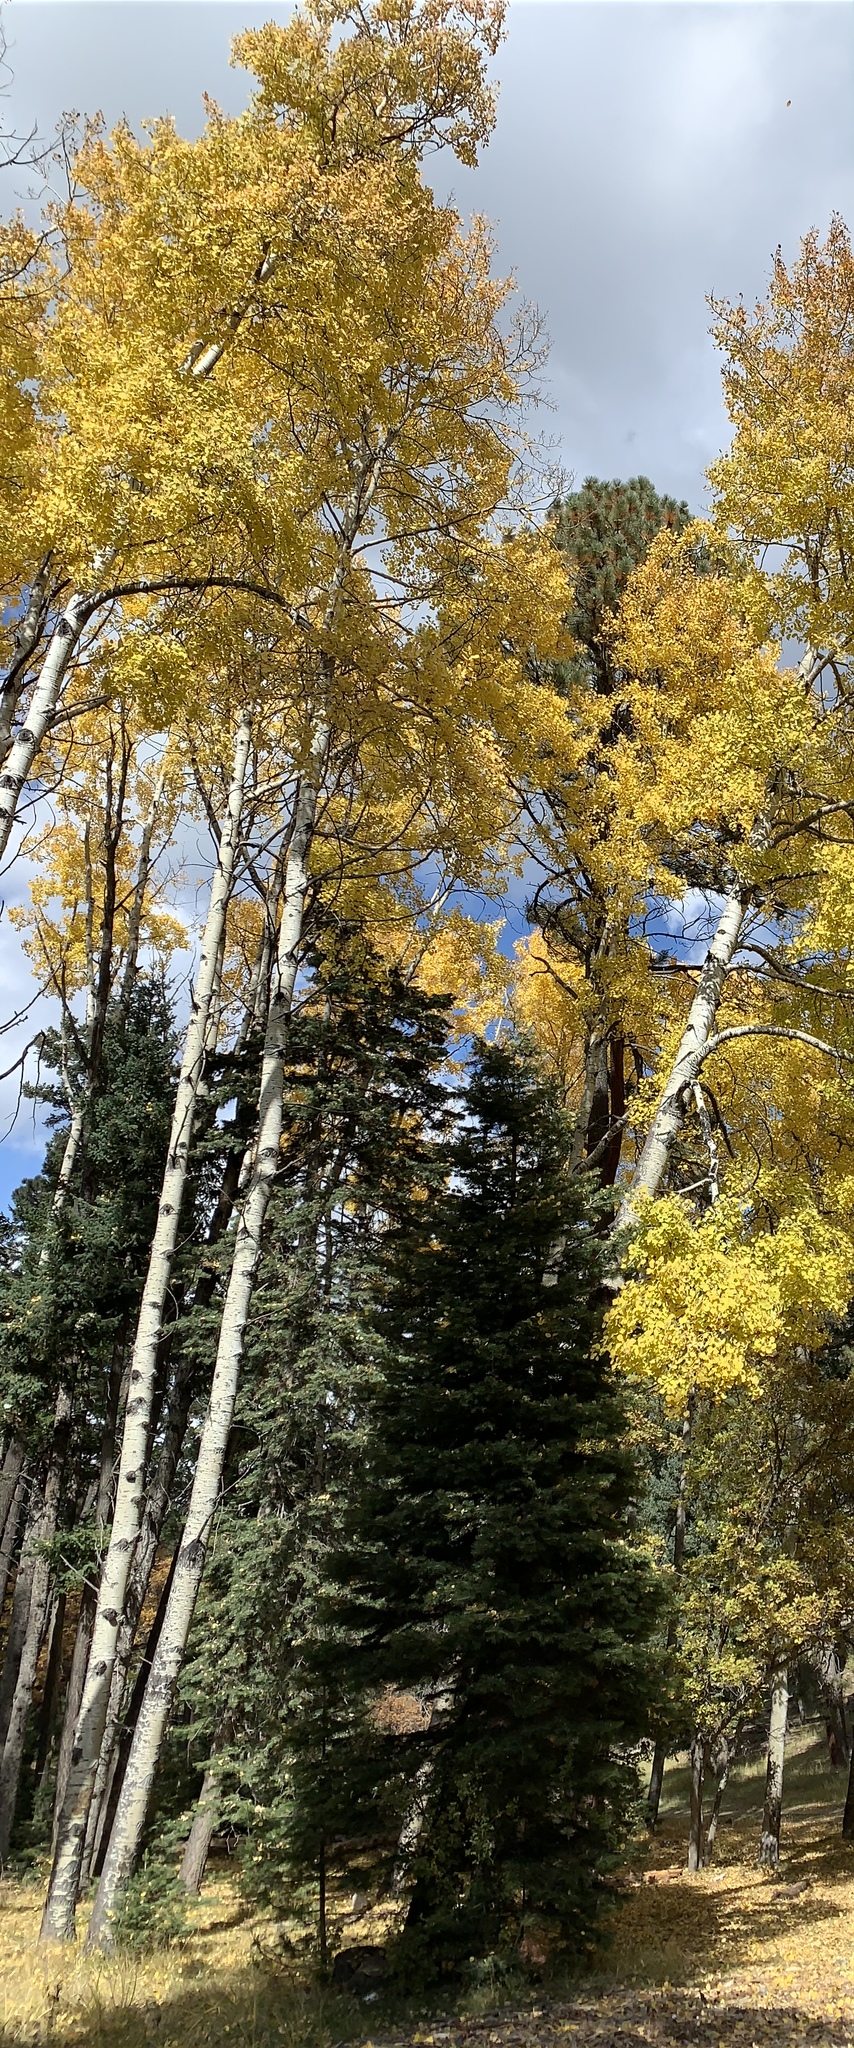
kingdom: Plantae
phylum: Tracheophyta
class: Magnoliopsida
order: Malpighiales
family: Salicaceae
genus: Populus
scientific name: Populus tremuloides
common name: Quaking aspen
